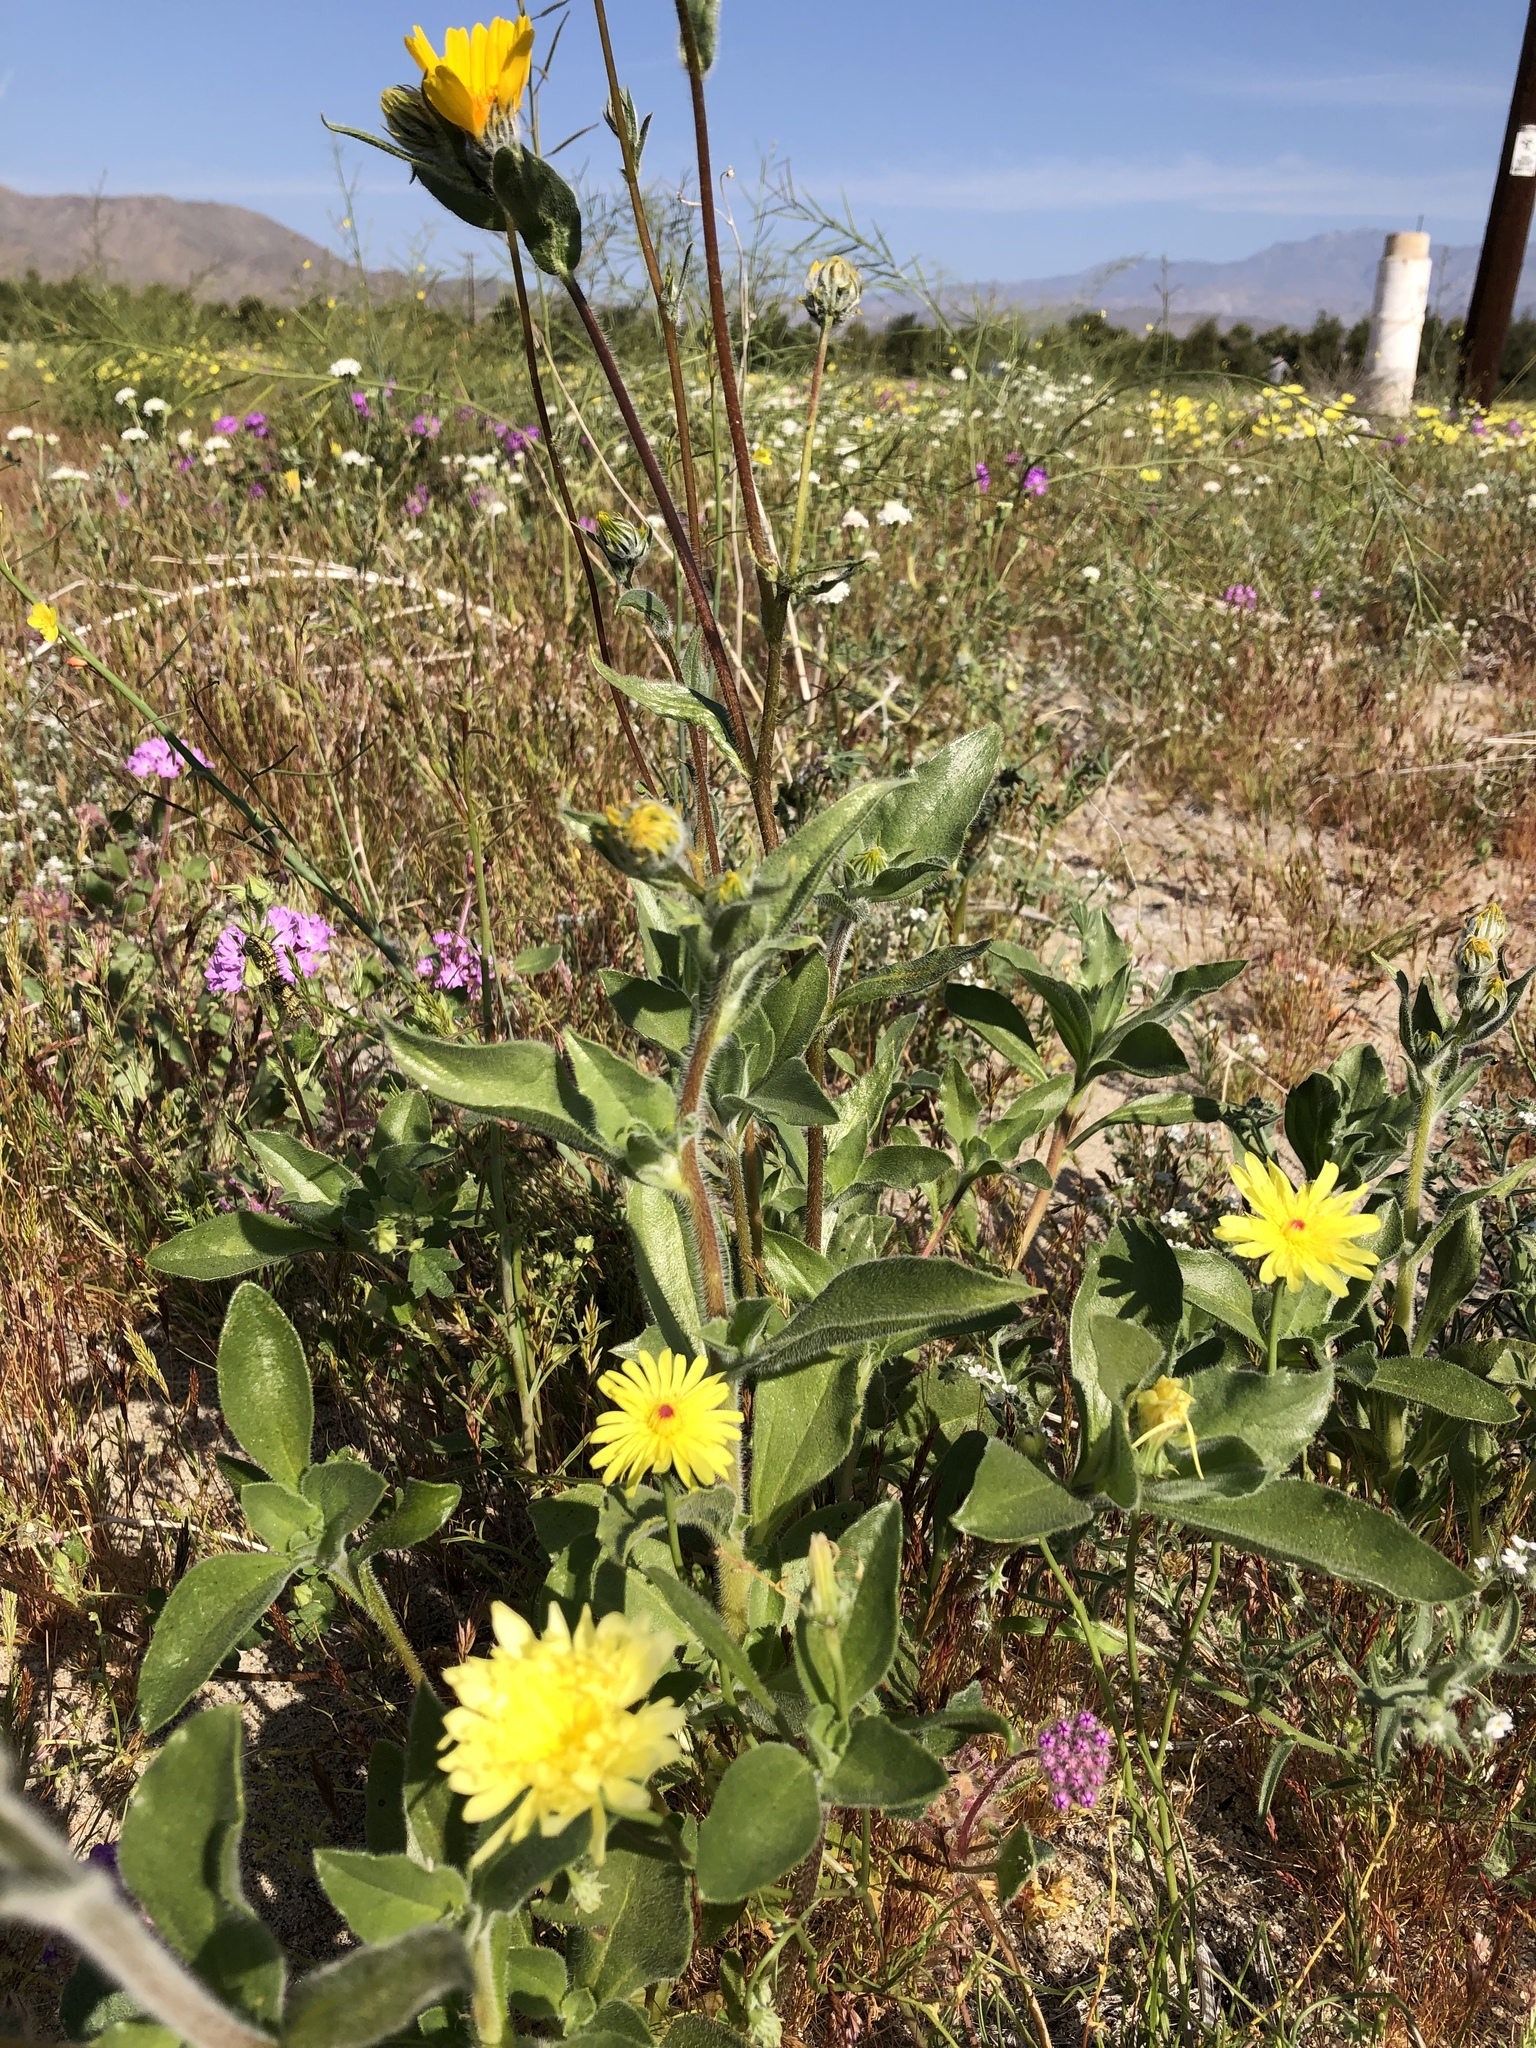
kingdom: Plantae
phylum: Tracheophyta
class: Magnoliopsida
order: Asterales
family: Asteraceae
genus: Malacothrix
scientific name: Malacothrix glabrata
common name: Smooth desert-dandelion
